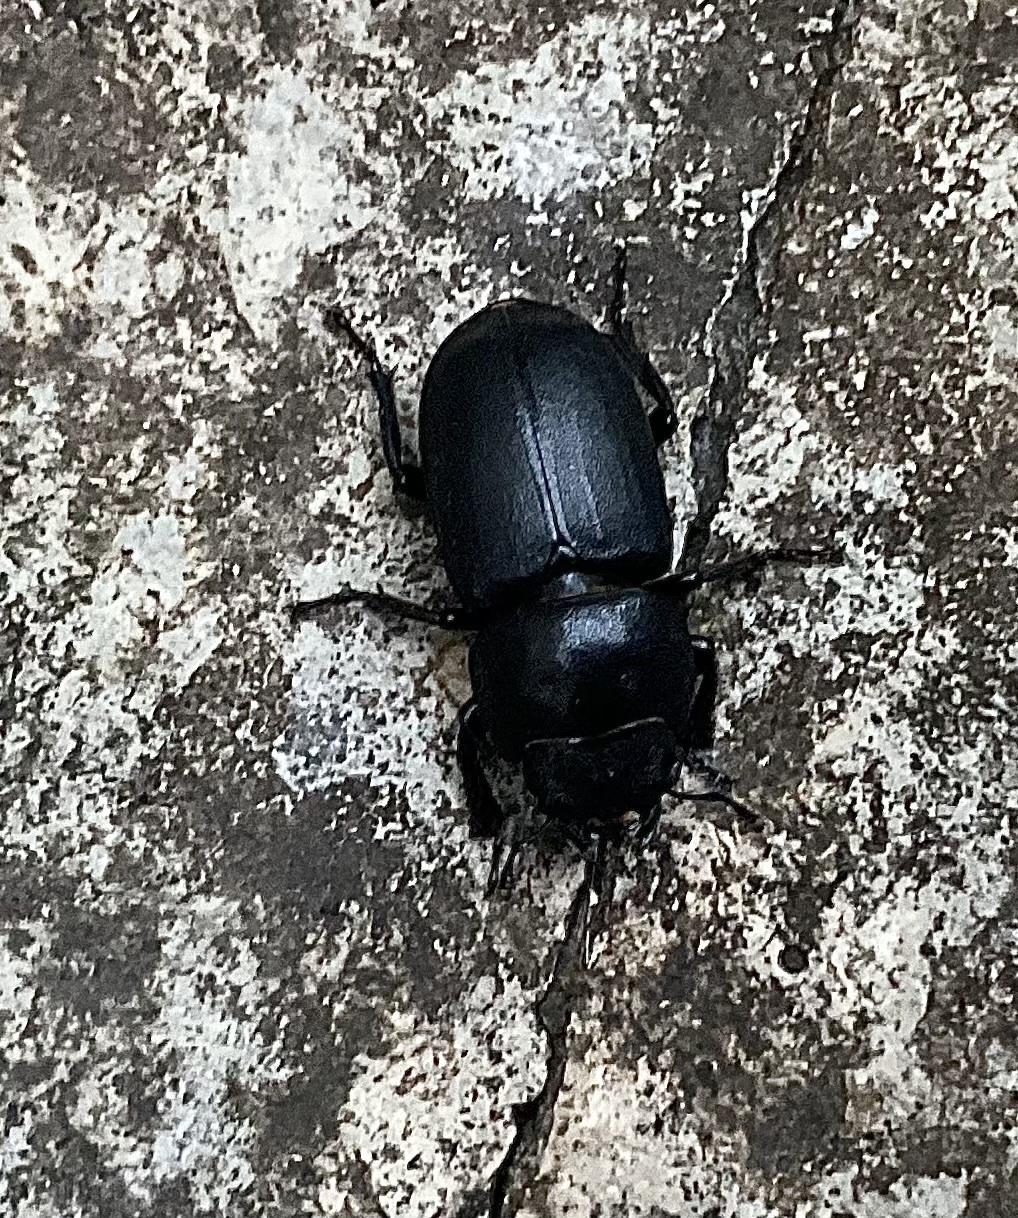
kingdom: Animalia
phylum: Arthropoda
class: Insecta
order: Coleoptera
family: Lucanidae
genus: Dorcus
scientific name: Dorcus parallelipipedus
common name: Lesser stag beetle
